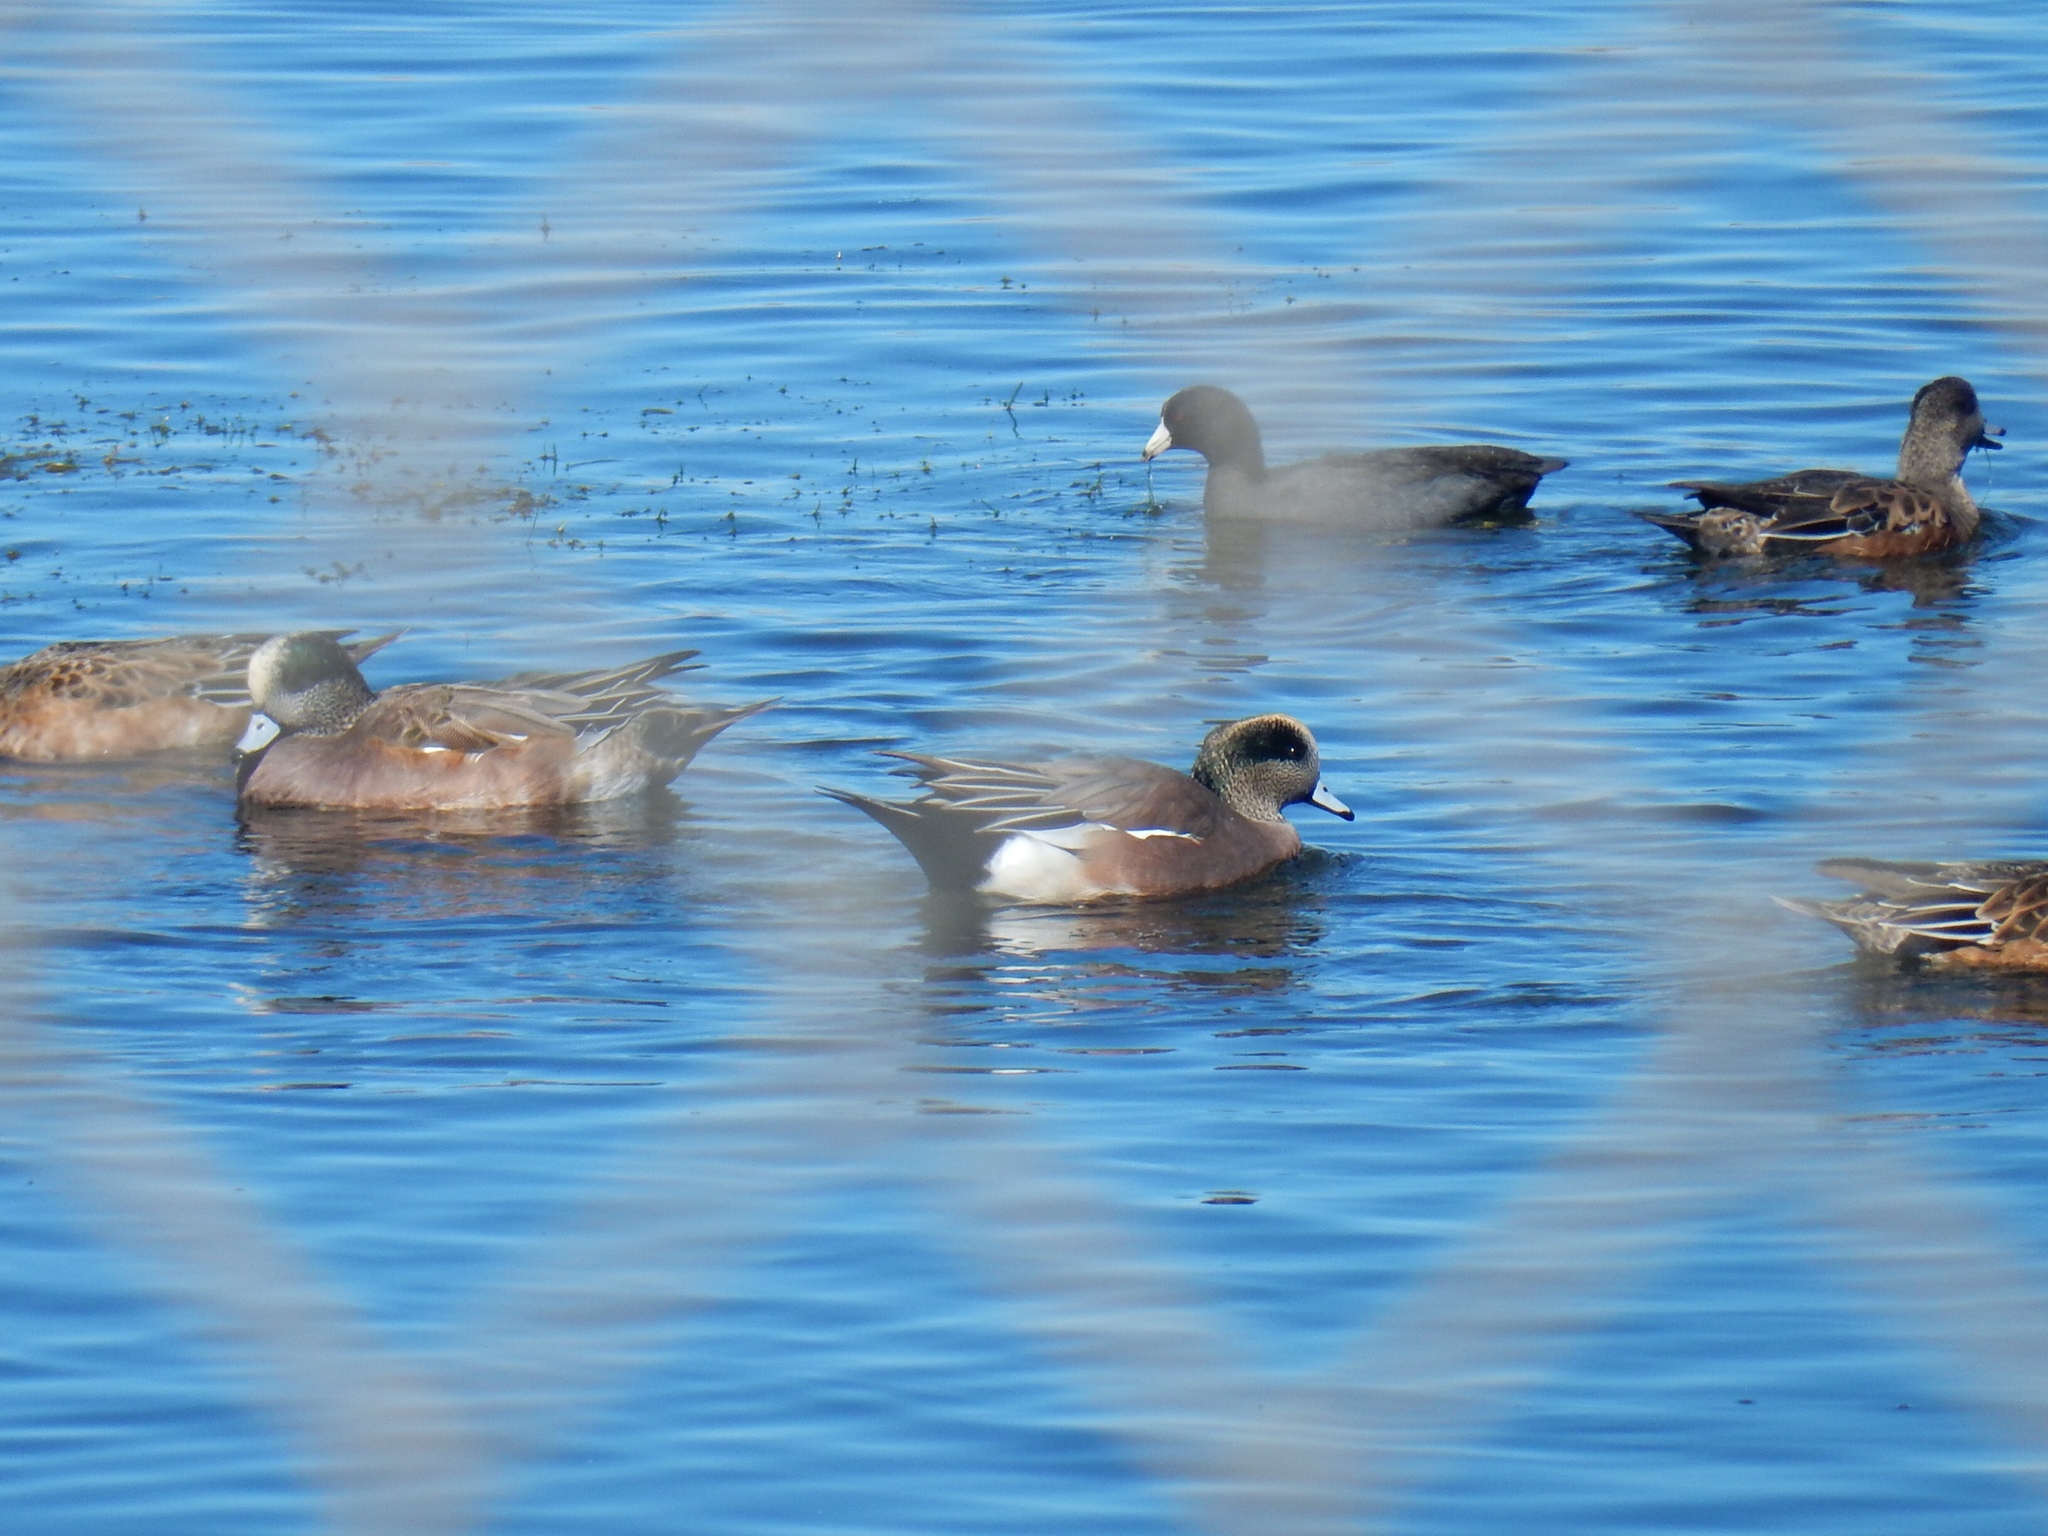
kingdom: Animalia
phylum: Chordata
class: Aves
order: Anseriformes
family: Anatidae
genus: Mareca
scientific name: Mareca americana
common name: American wigeon
